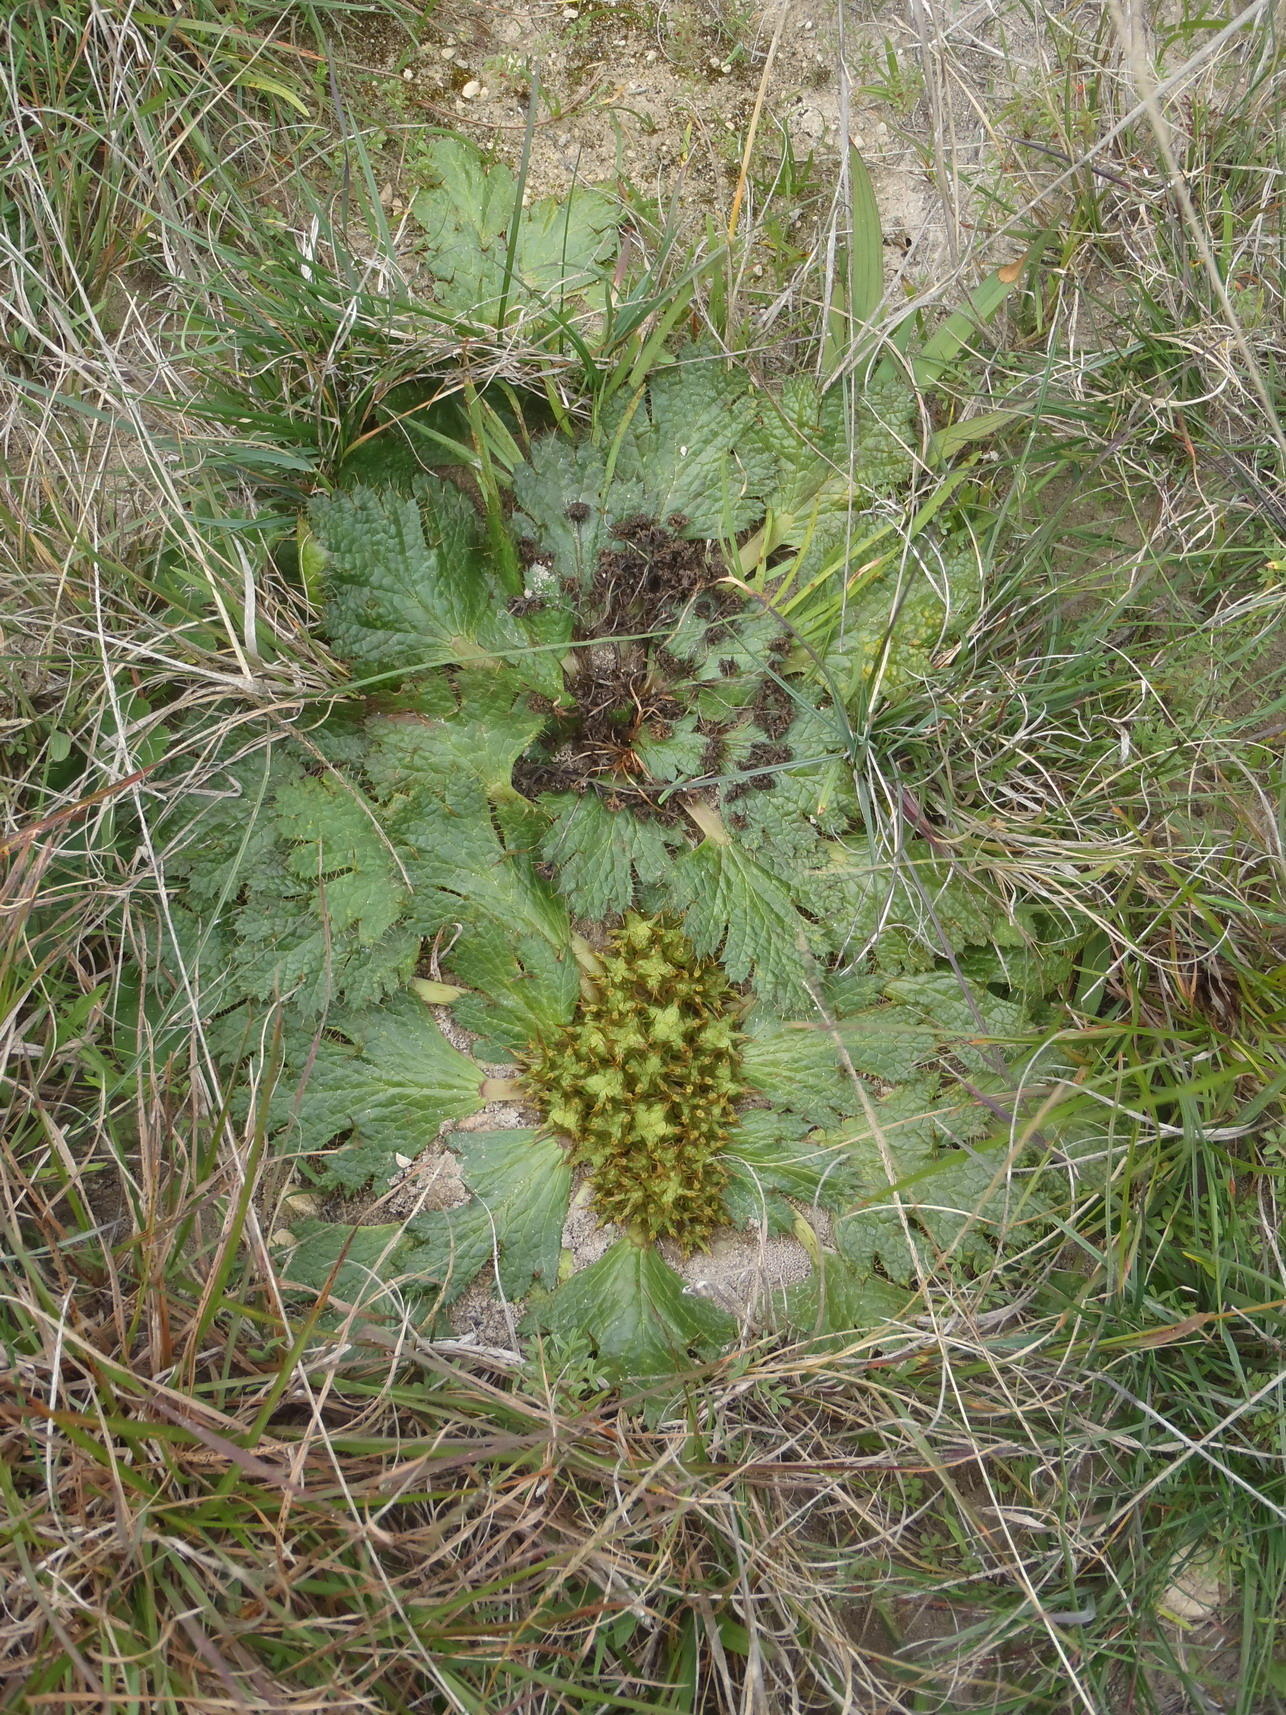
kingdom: Plantae
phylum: Tracheophyta
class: Magnoliopsida
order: Apiales
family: Apiaceae
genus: Arctopus
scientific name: Arctopus echinatus
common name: Platdoring
